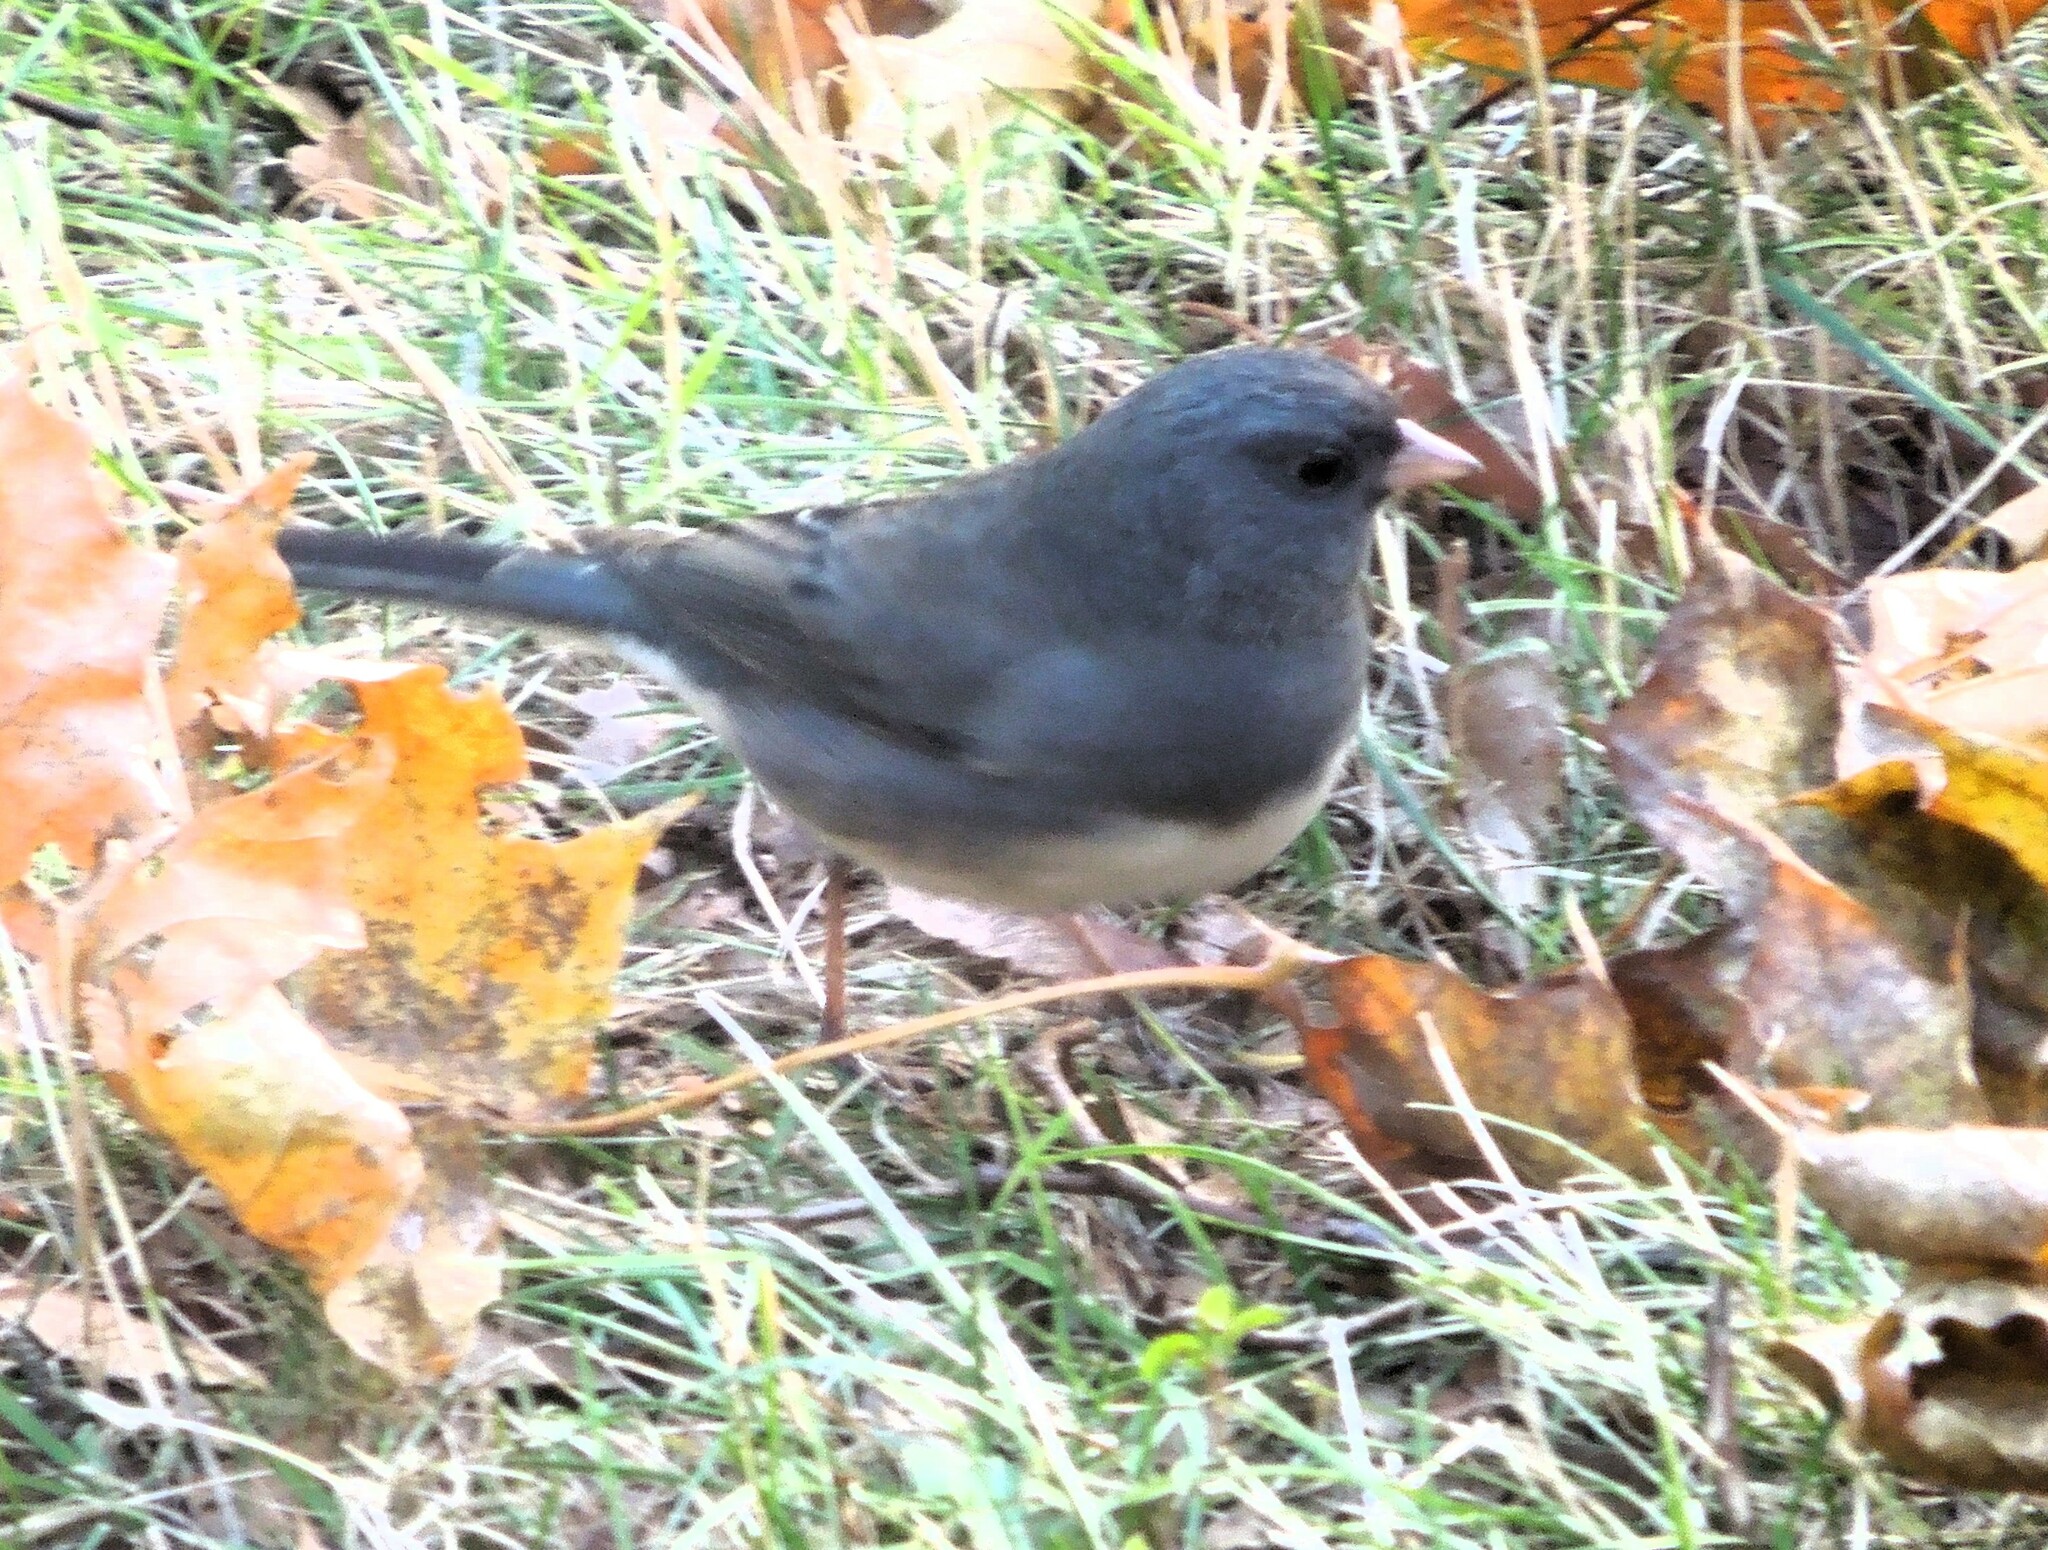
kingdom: Animalia
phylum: Chordata
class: Aves
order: Passeriformes
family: Passerellidae
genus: Junco
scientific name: Junco hyemalis
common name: Dark-eyed junco
